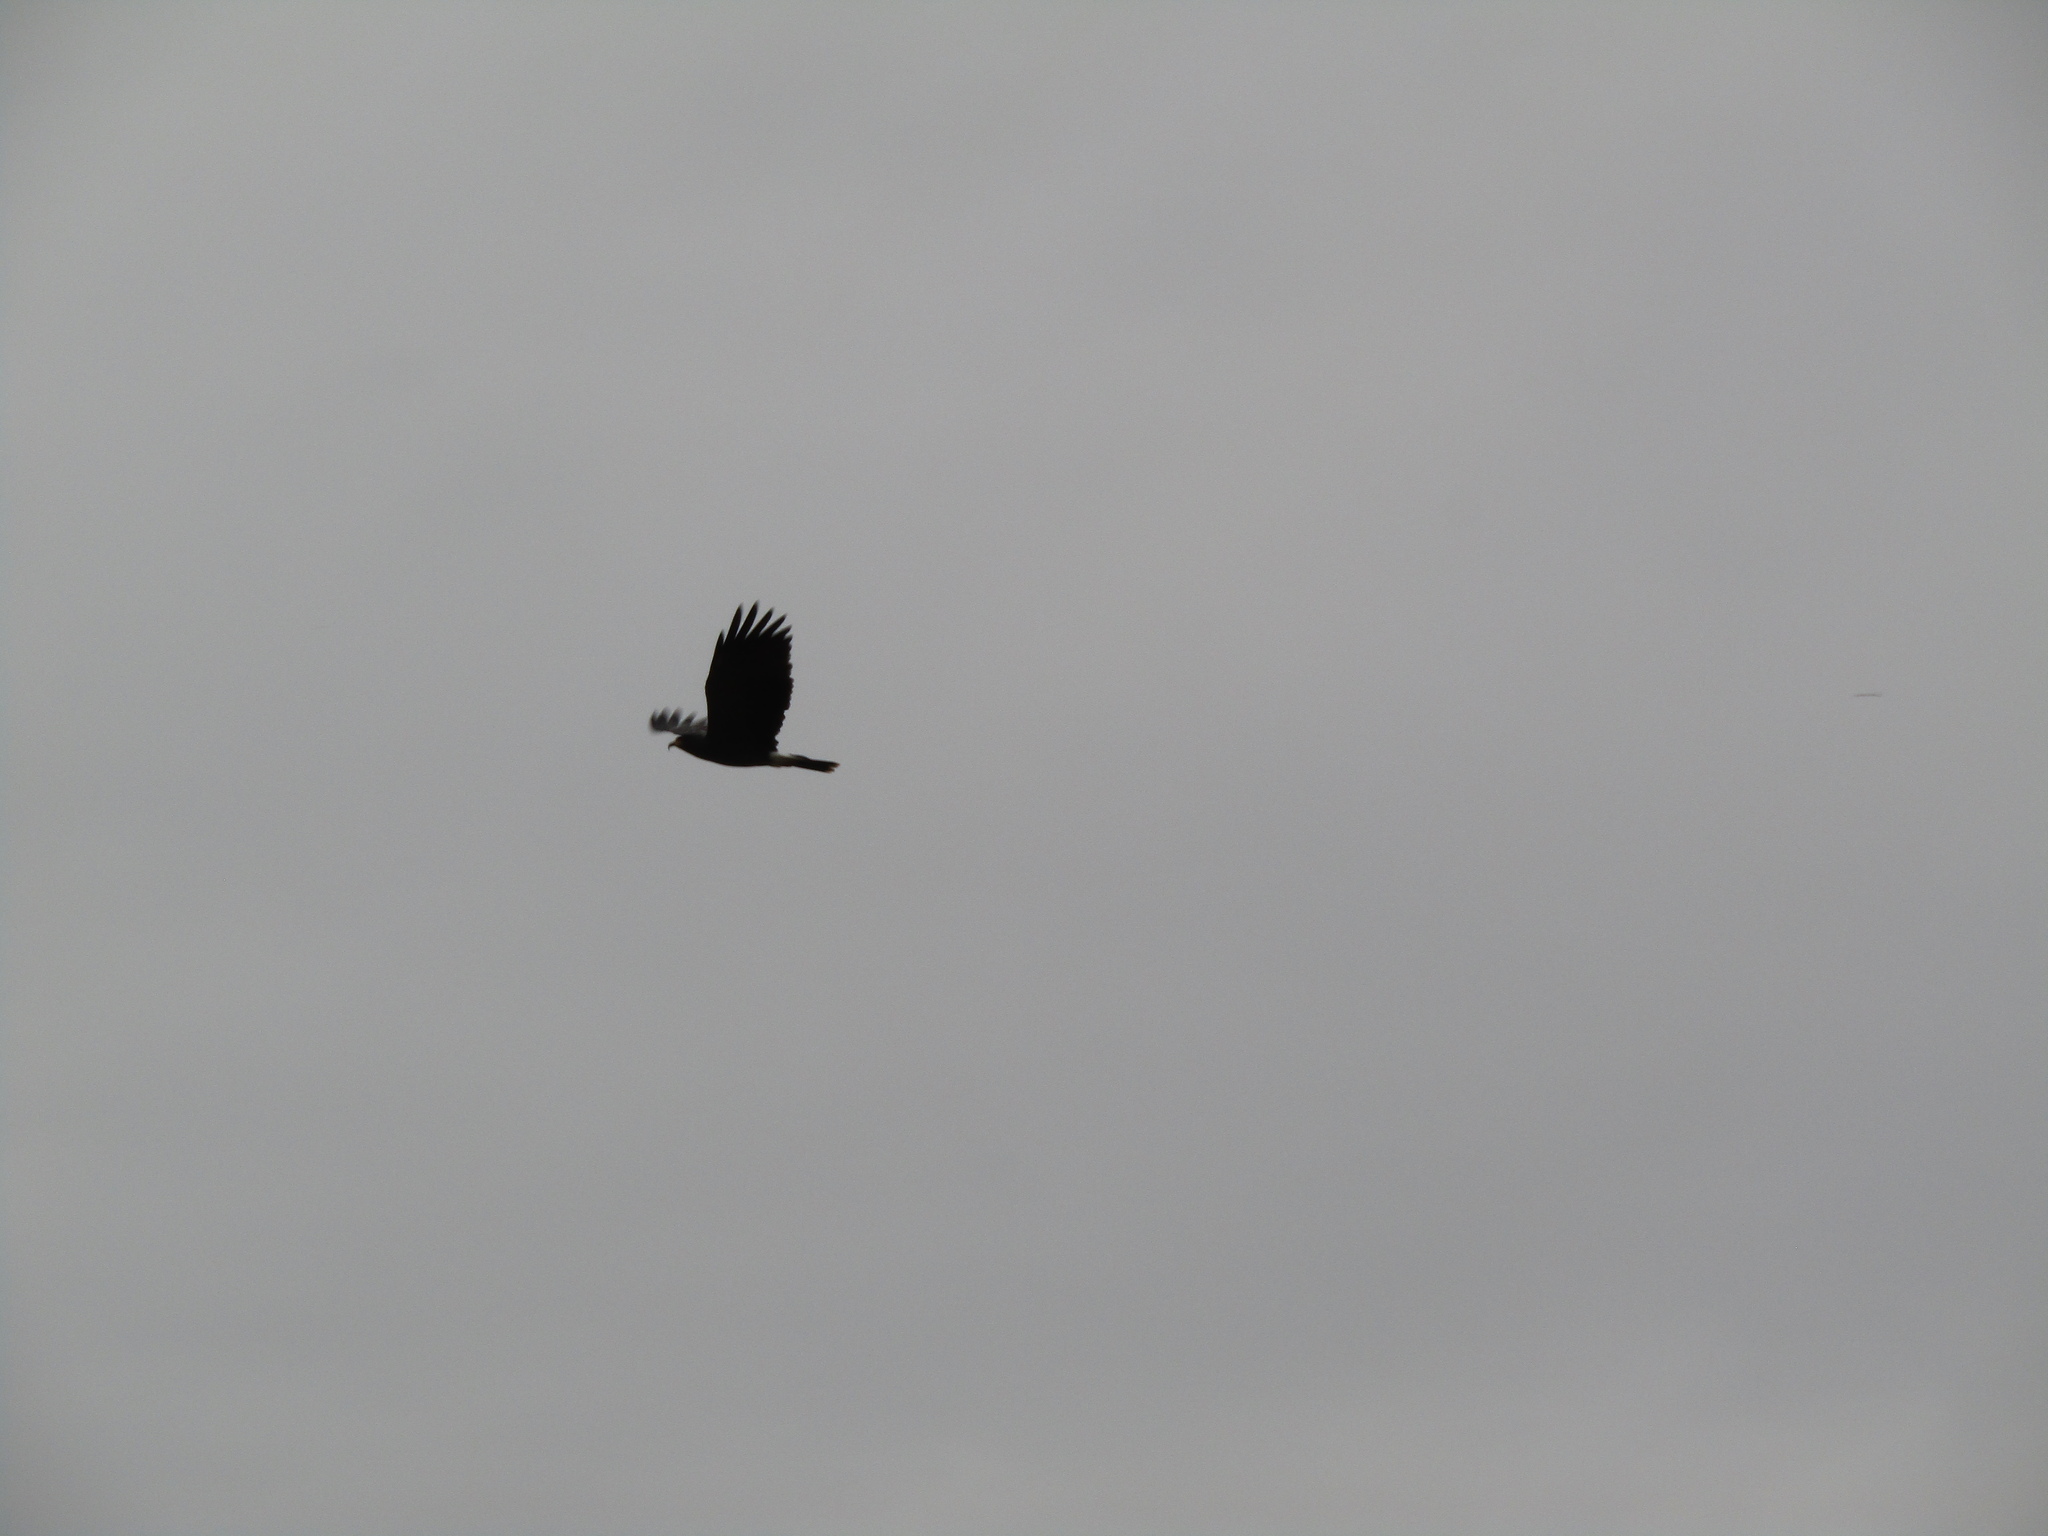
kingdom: Animalia
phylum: Chordata
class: Aves
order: Accipitriformes
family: Accipitridae
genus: Rostrhamus
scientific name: Rostrhamus sociabilis
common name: Snail kite
